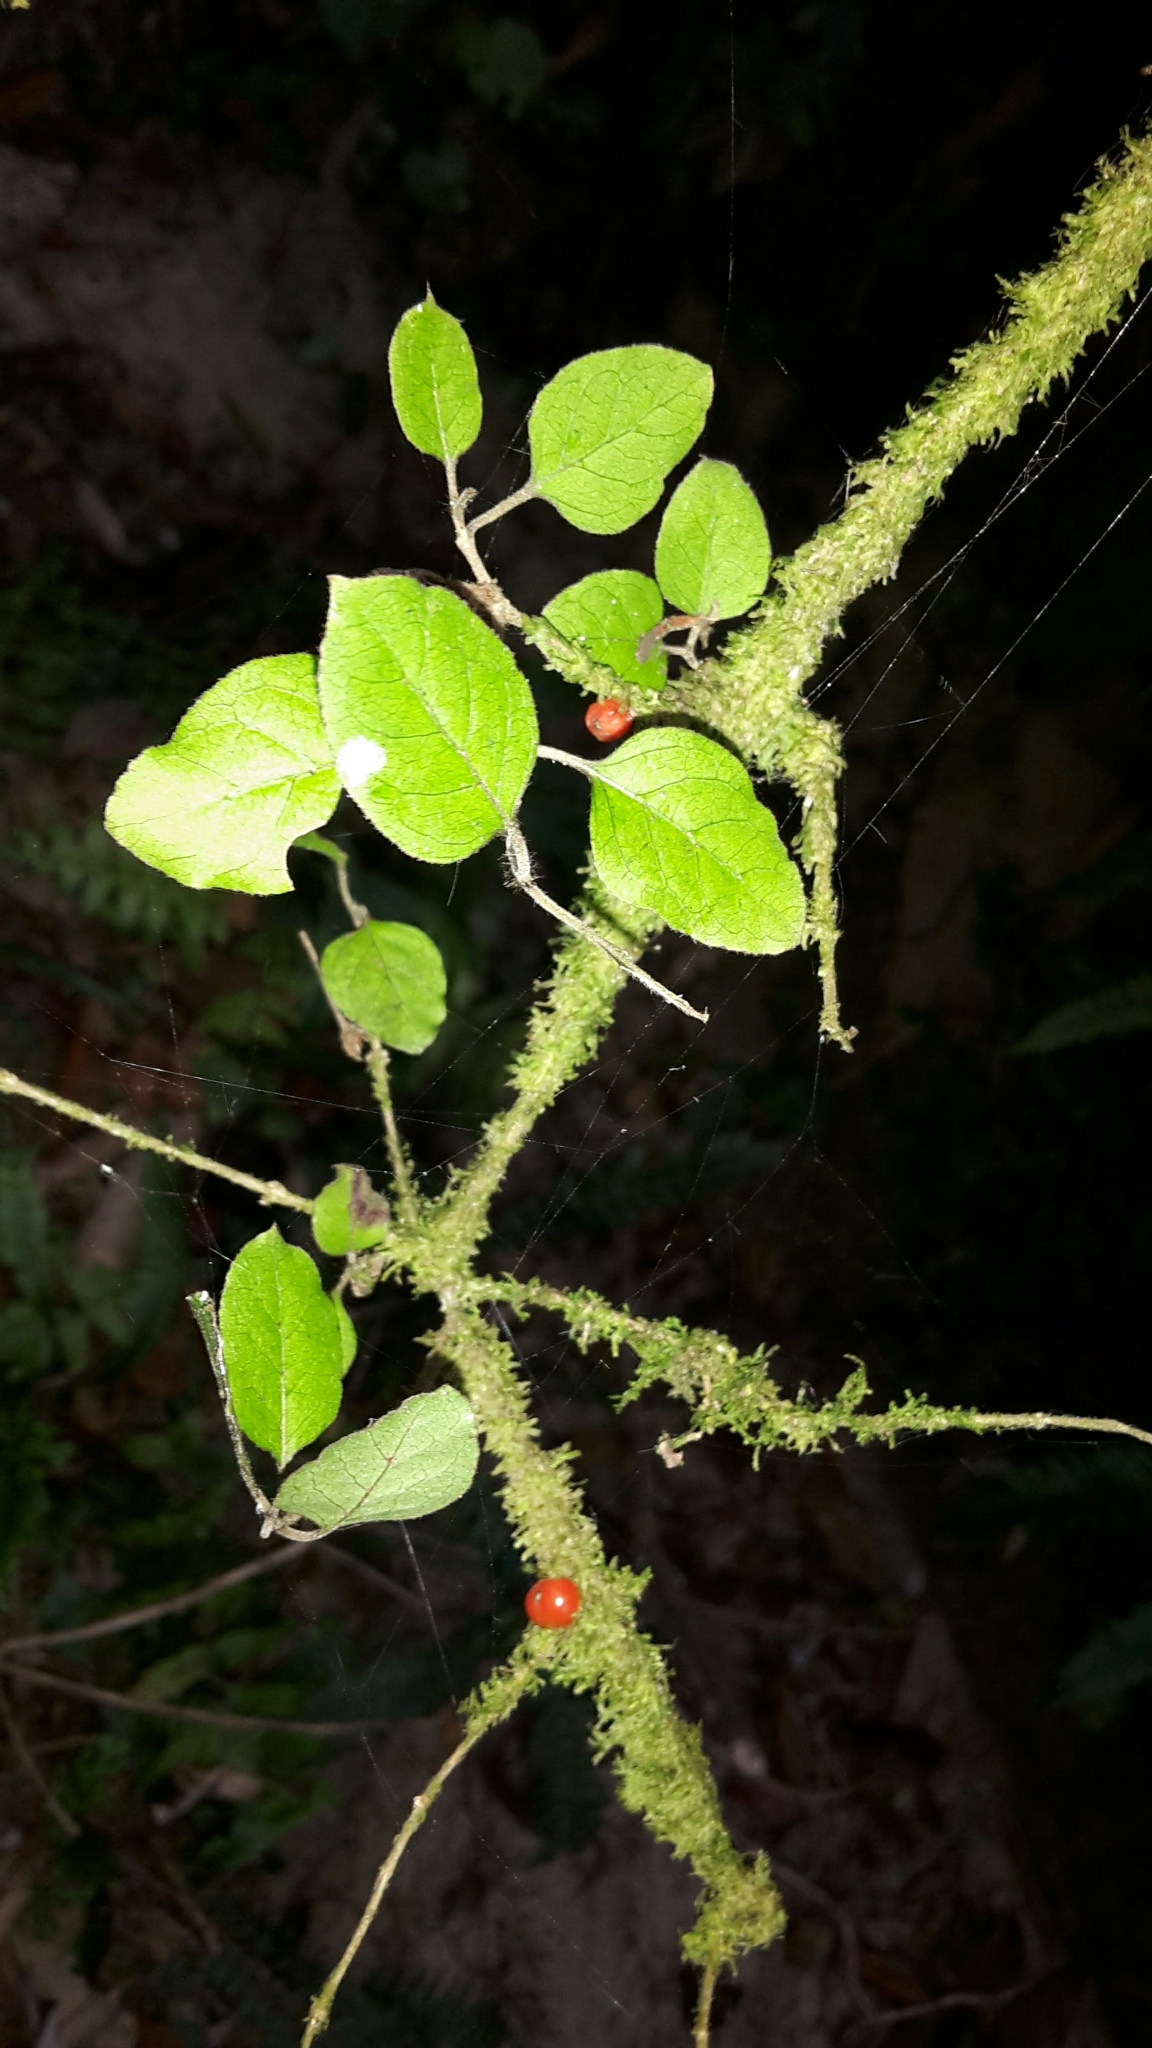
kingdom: Plantae
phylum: Tracheophyta
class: Magnoliopsida
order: Gentianales
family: Rubiaceae
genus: Coprosma
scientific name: Coprosma rotundifolia
